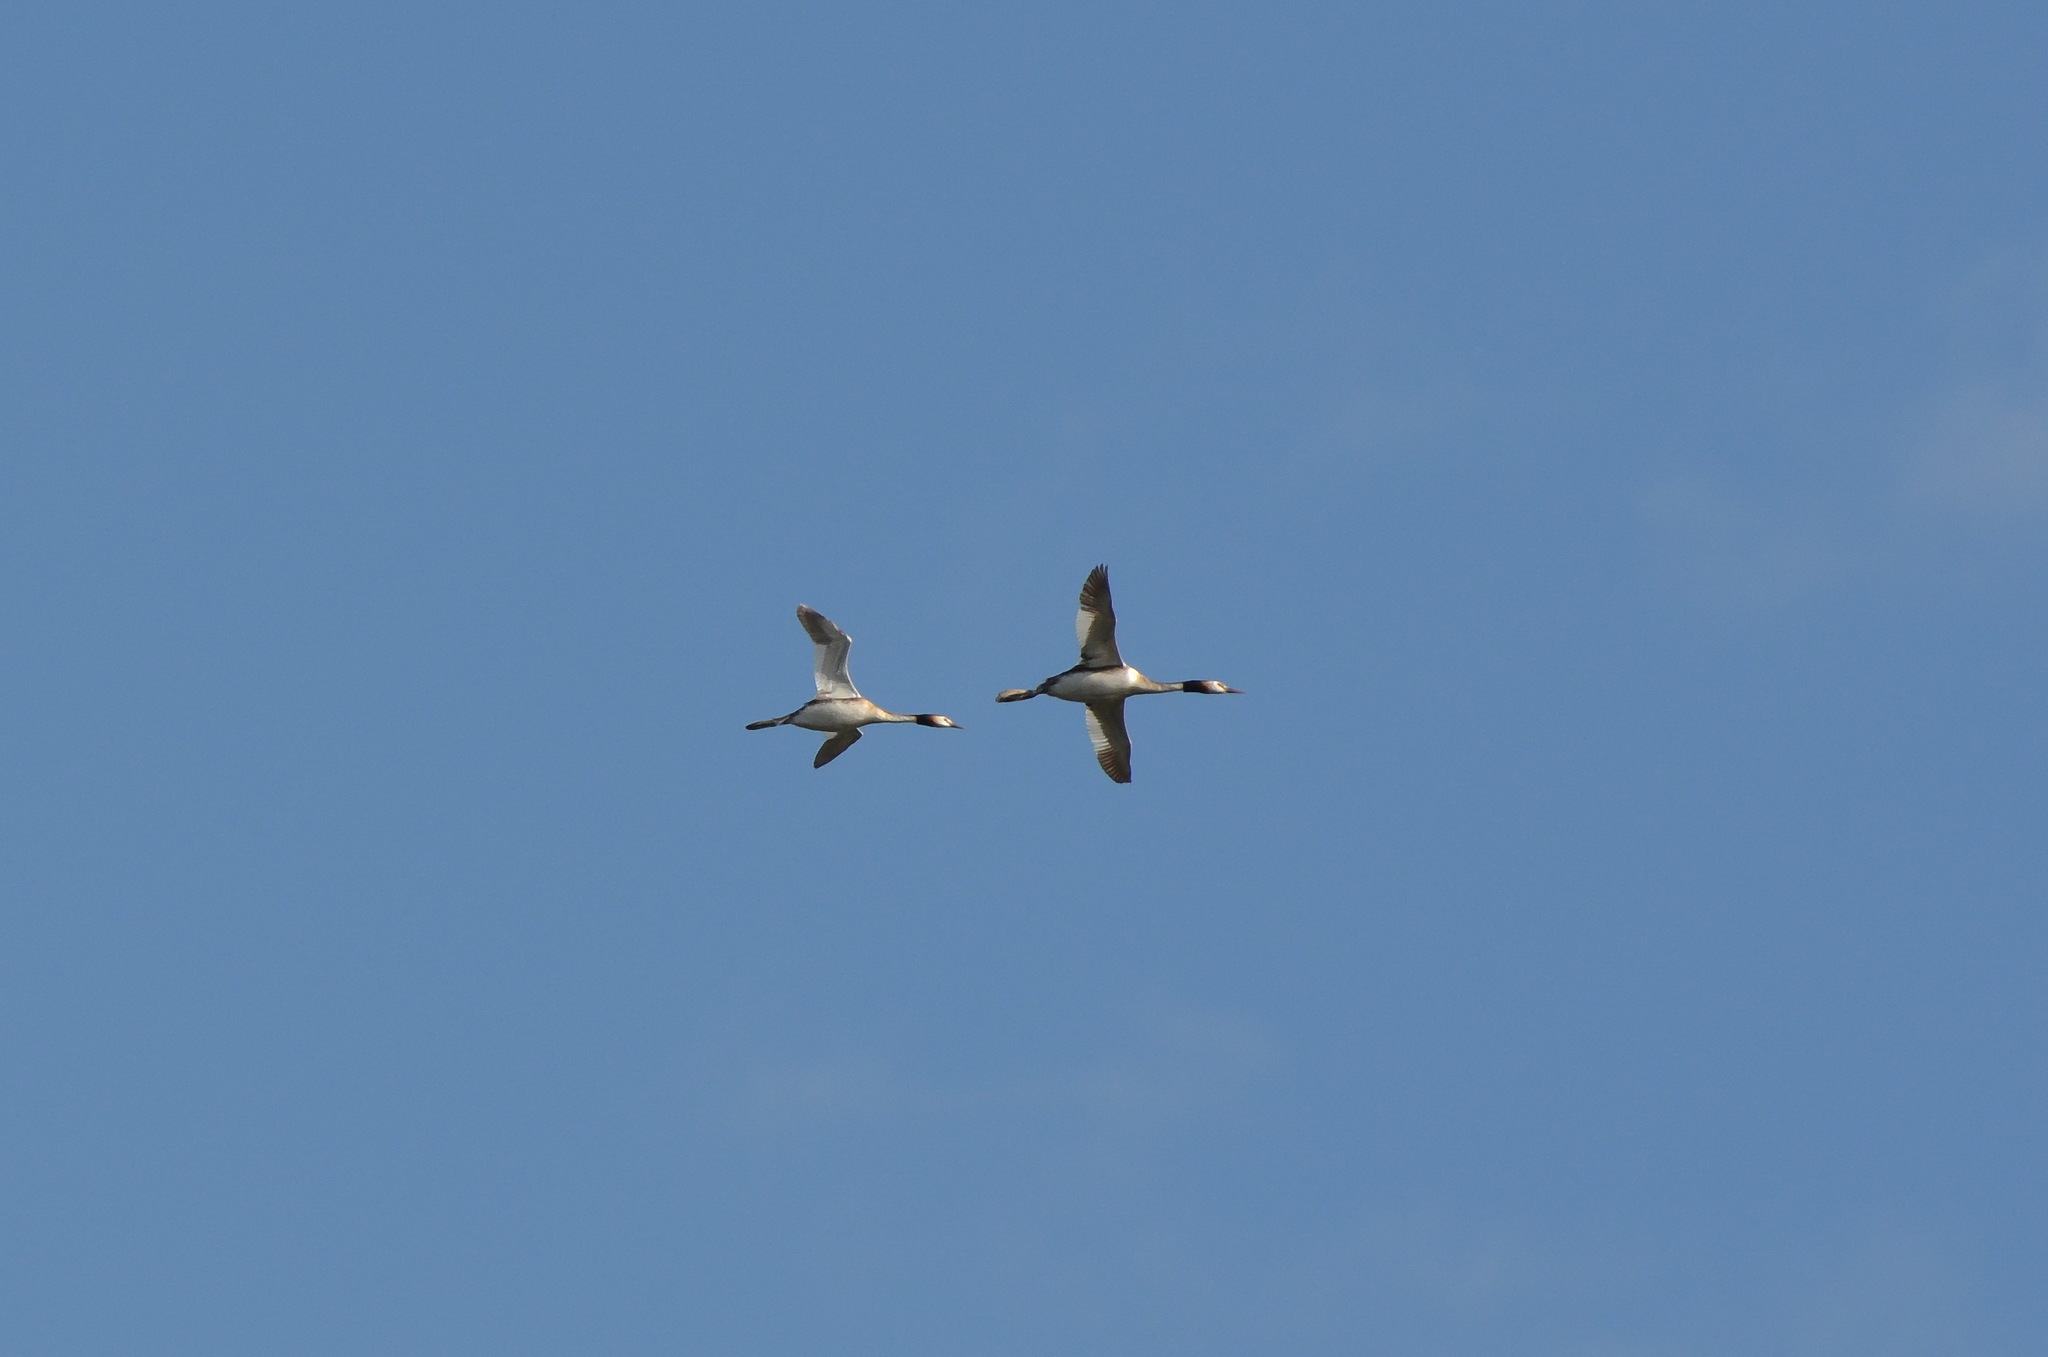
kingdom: Animalia
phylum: Chordata
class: Aves
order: Podicipediformes
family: Podicipedidae
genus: Podiceps
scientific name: Podiceps cristatus
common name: Great crested grebe
